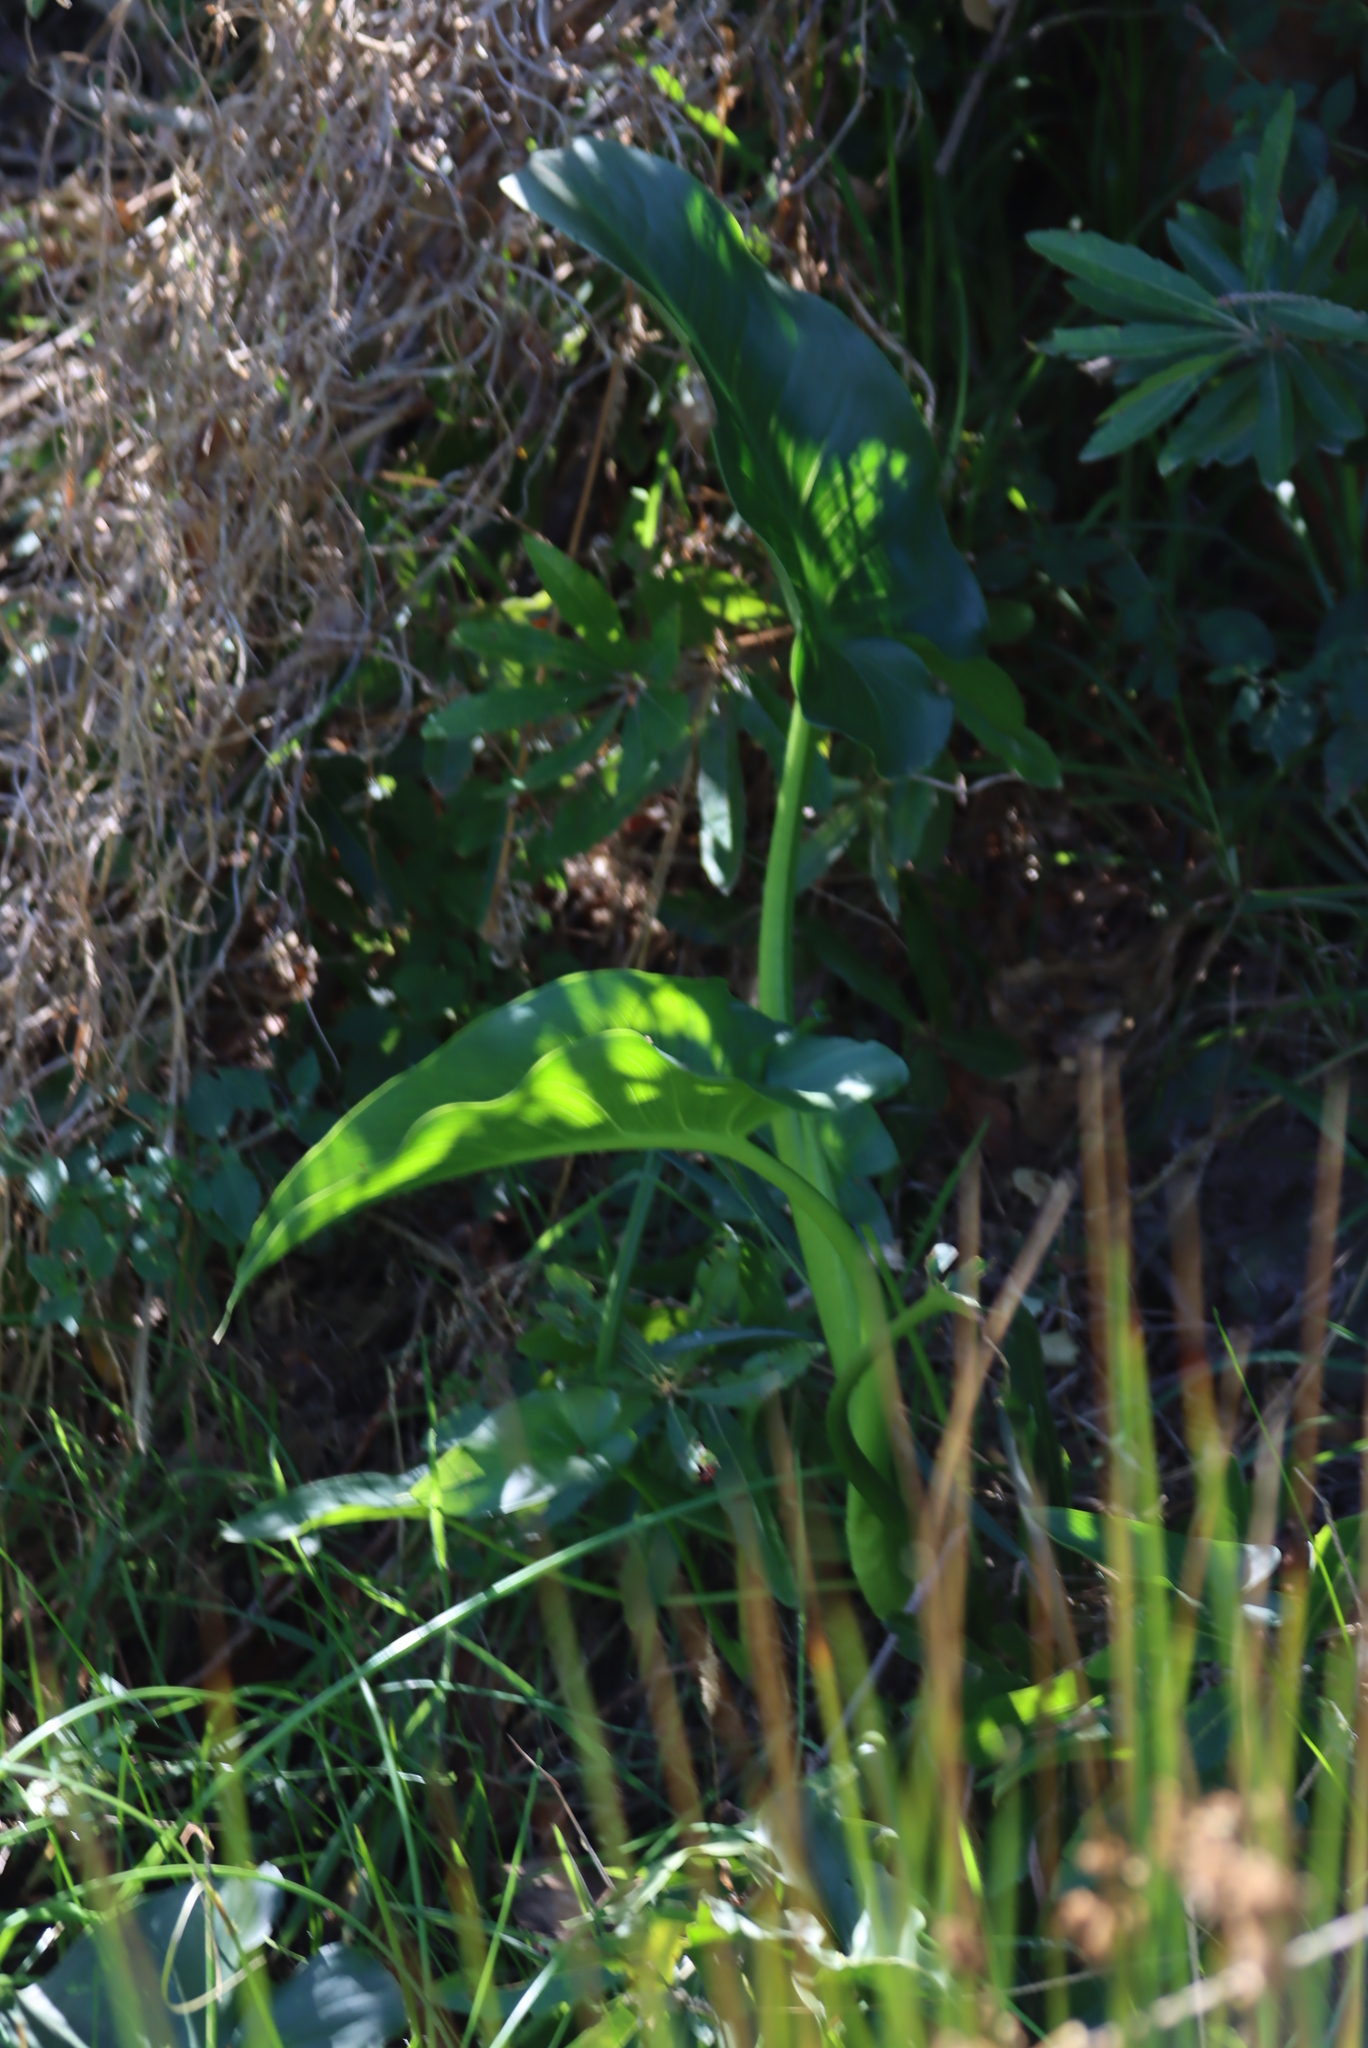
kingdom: Plantae
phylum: Tracheophyta
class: Liliopsida
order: Alismatales
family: Araceae
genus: Zantedeschia
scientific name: Zantedeschia aethiopica
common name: Altar-lily
